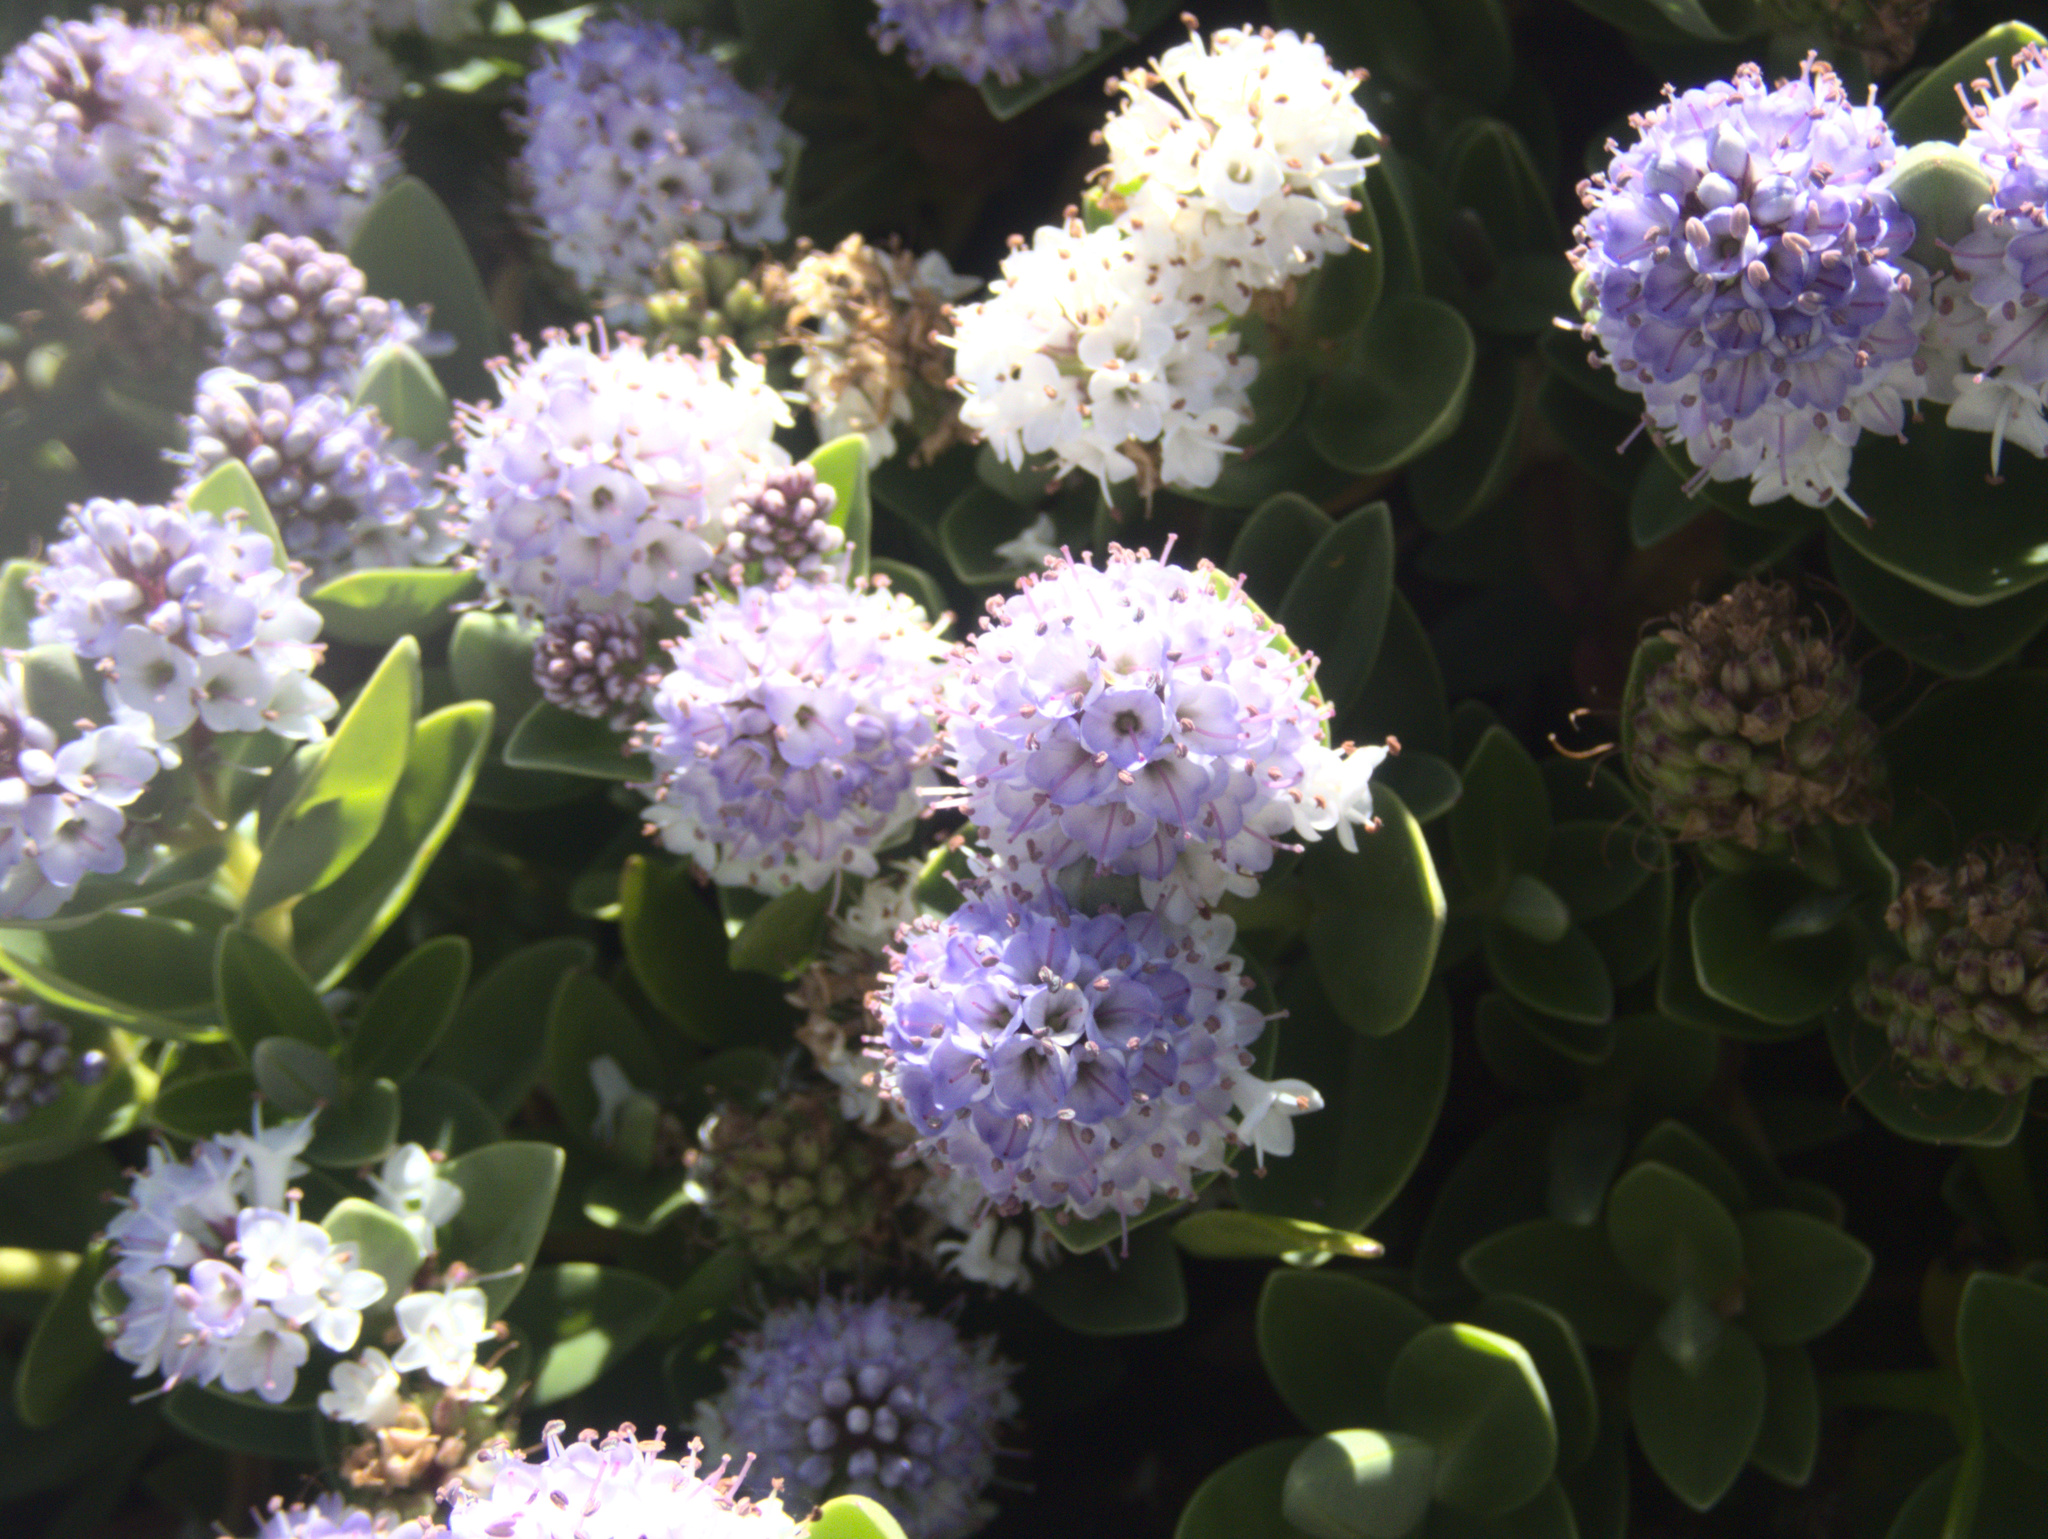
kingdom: Plantae
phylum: Tracheophyta
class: Magnoliopsida
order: Lamiales
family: Plantaginaceae
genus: Veronica
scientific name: Veronica chathamica
